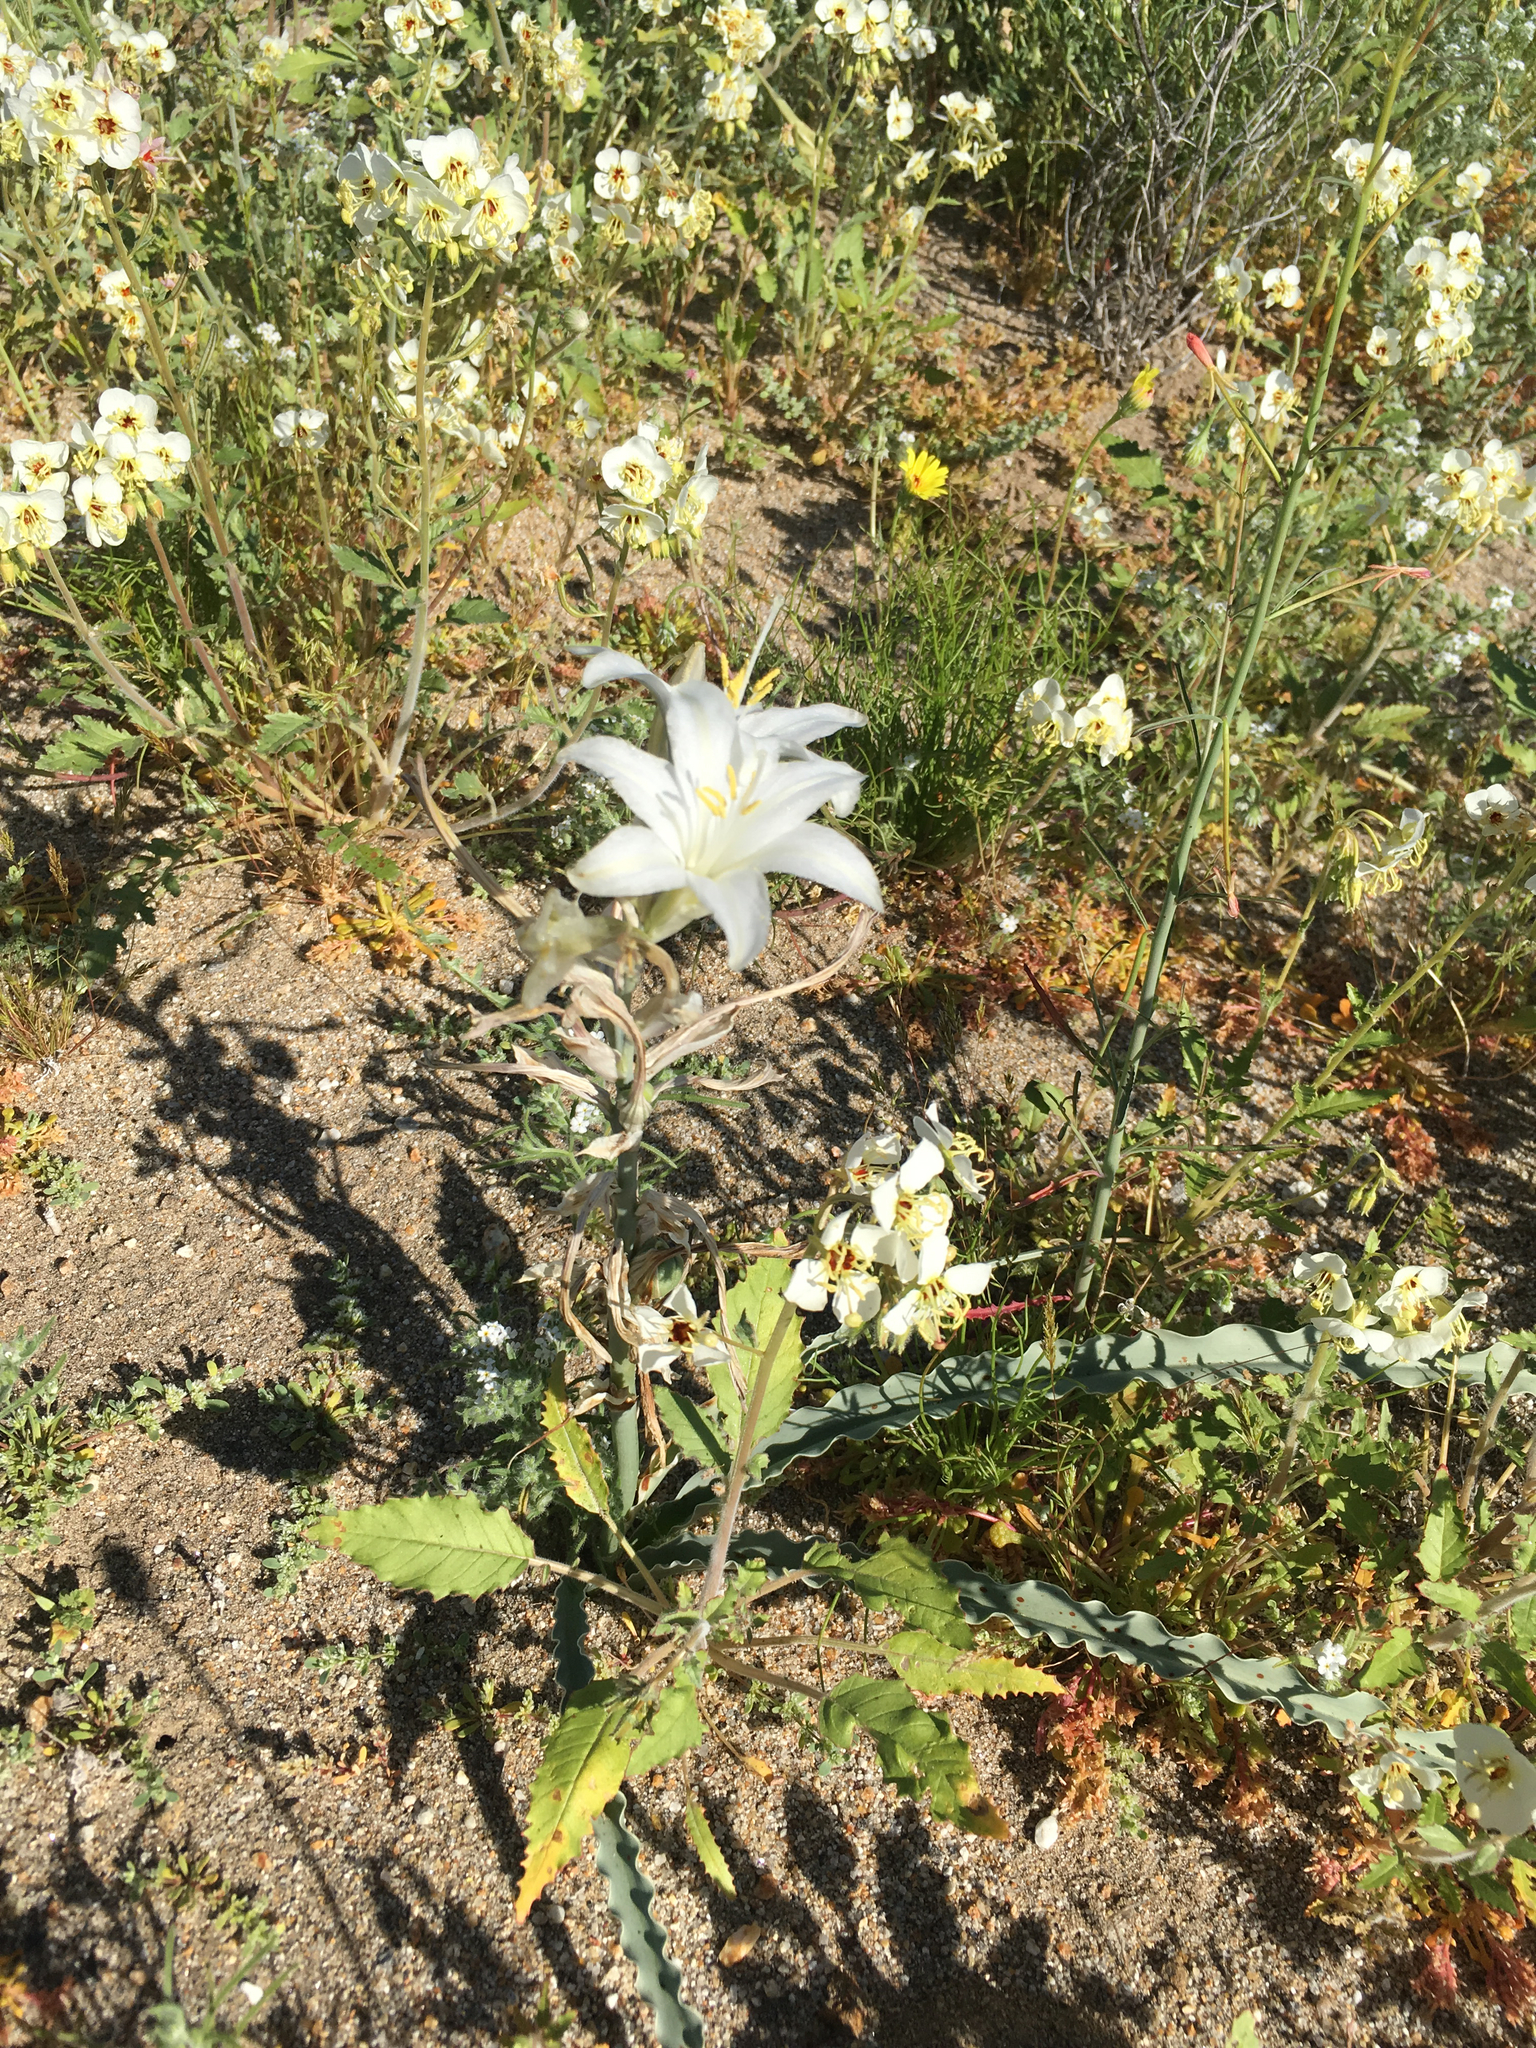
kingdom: Plantae
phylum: Tracheophyta
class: Liliopsida
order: Asparagales
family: Asparagaceae
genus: Hesperocallis
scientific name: Hesperocallis undulata
